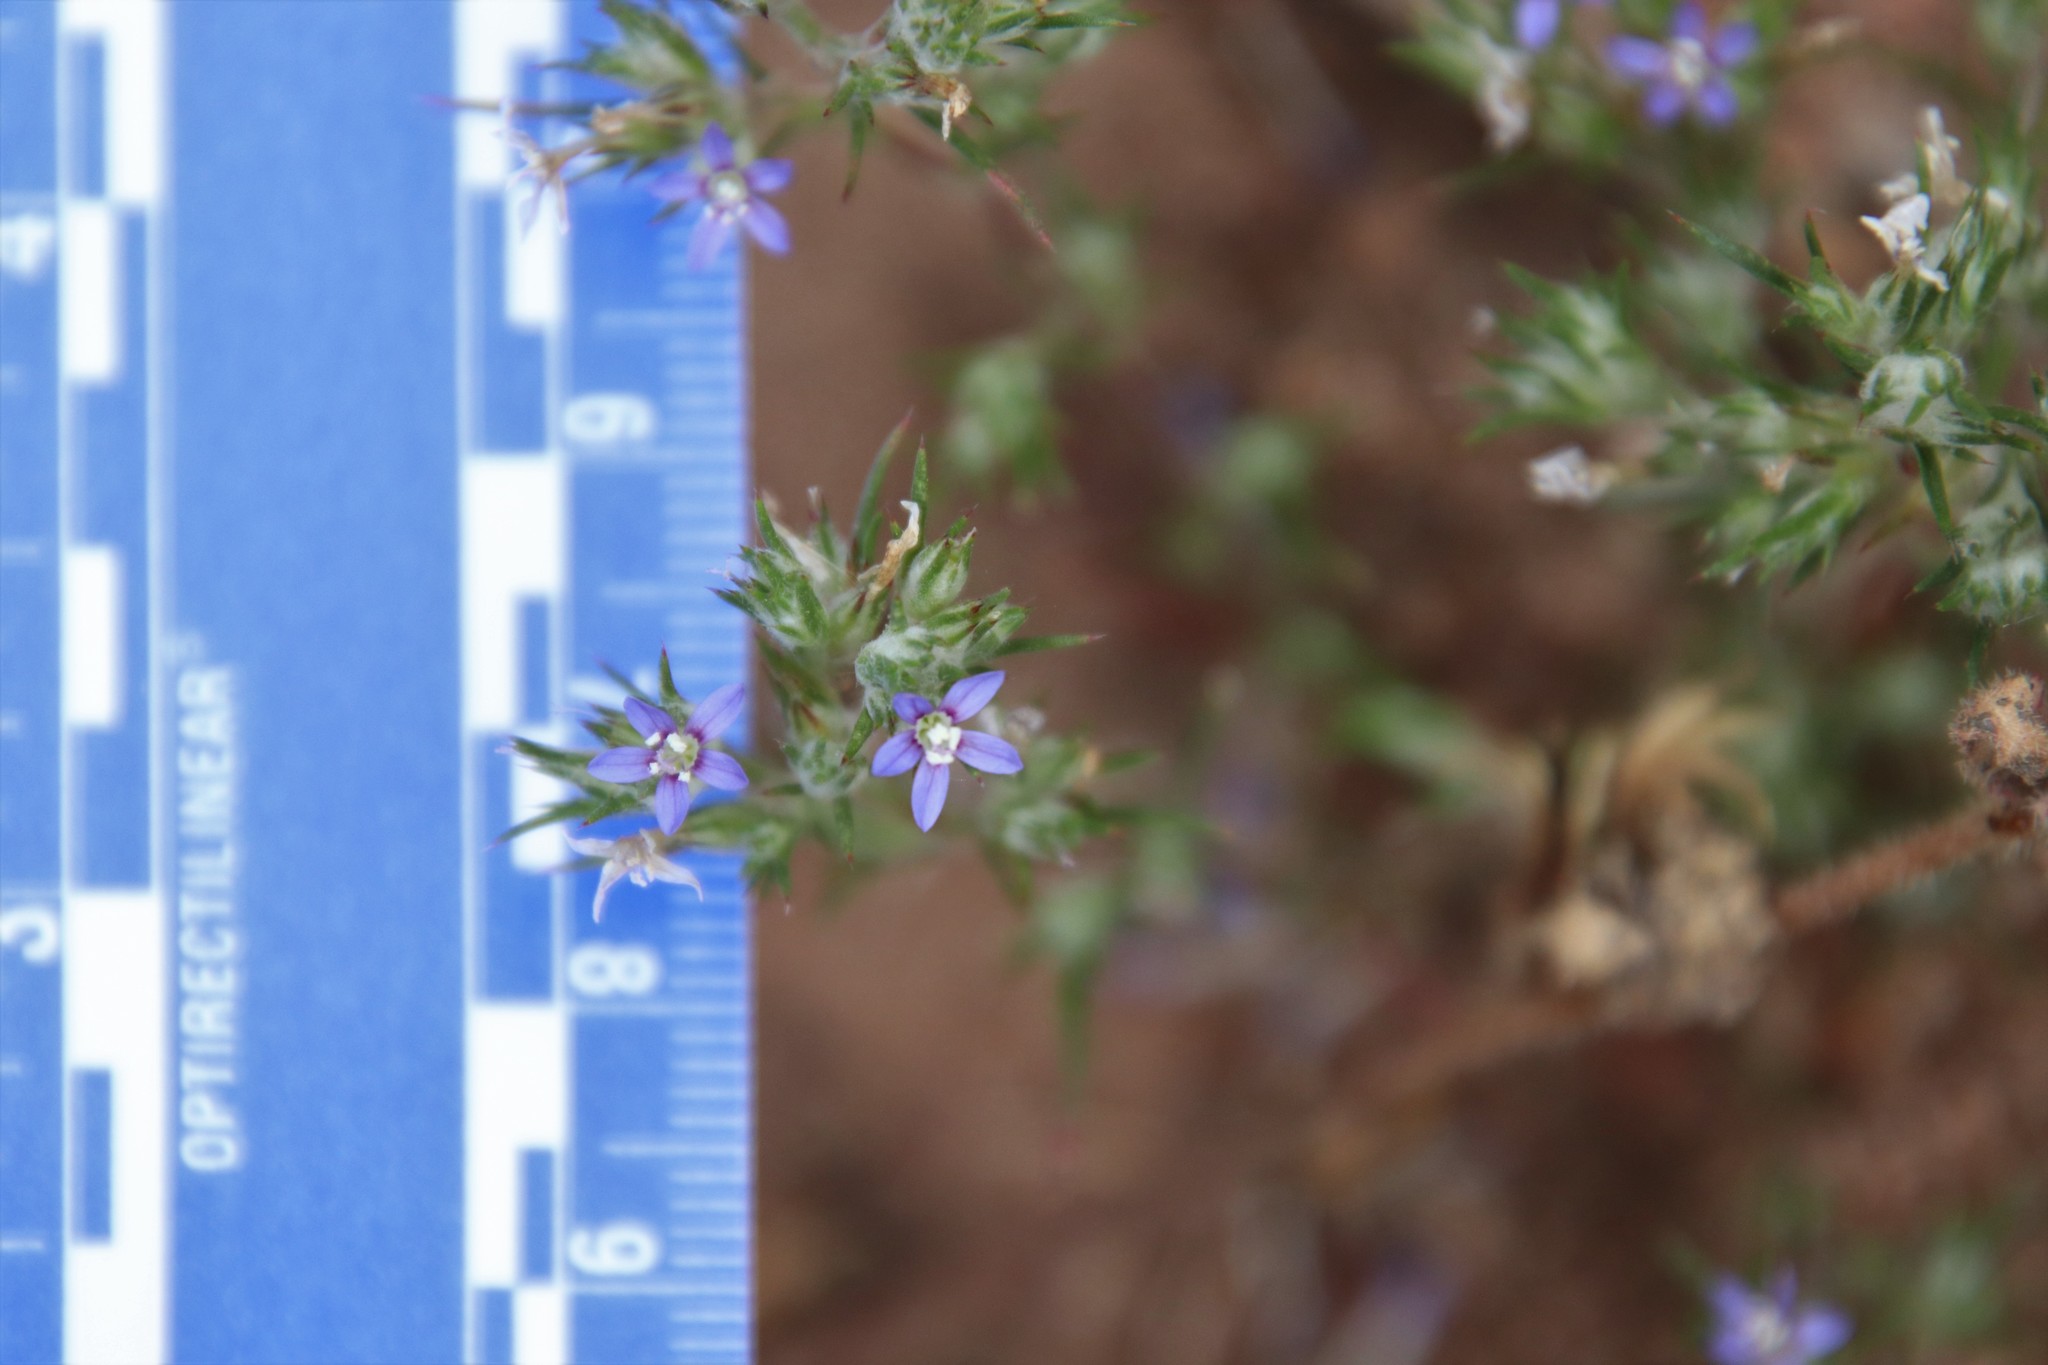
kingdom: Plantae
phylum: Tracheophyta
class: Magnoliopsida
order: Ericales
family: Polemoniaceae
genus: Eriastrum
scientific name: Eriastrum filifolium
